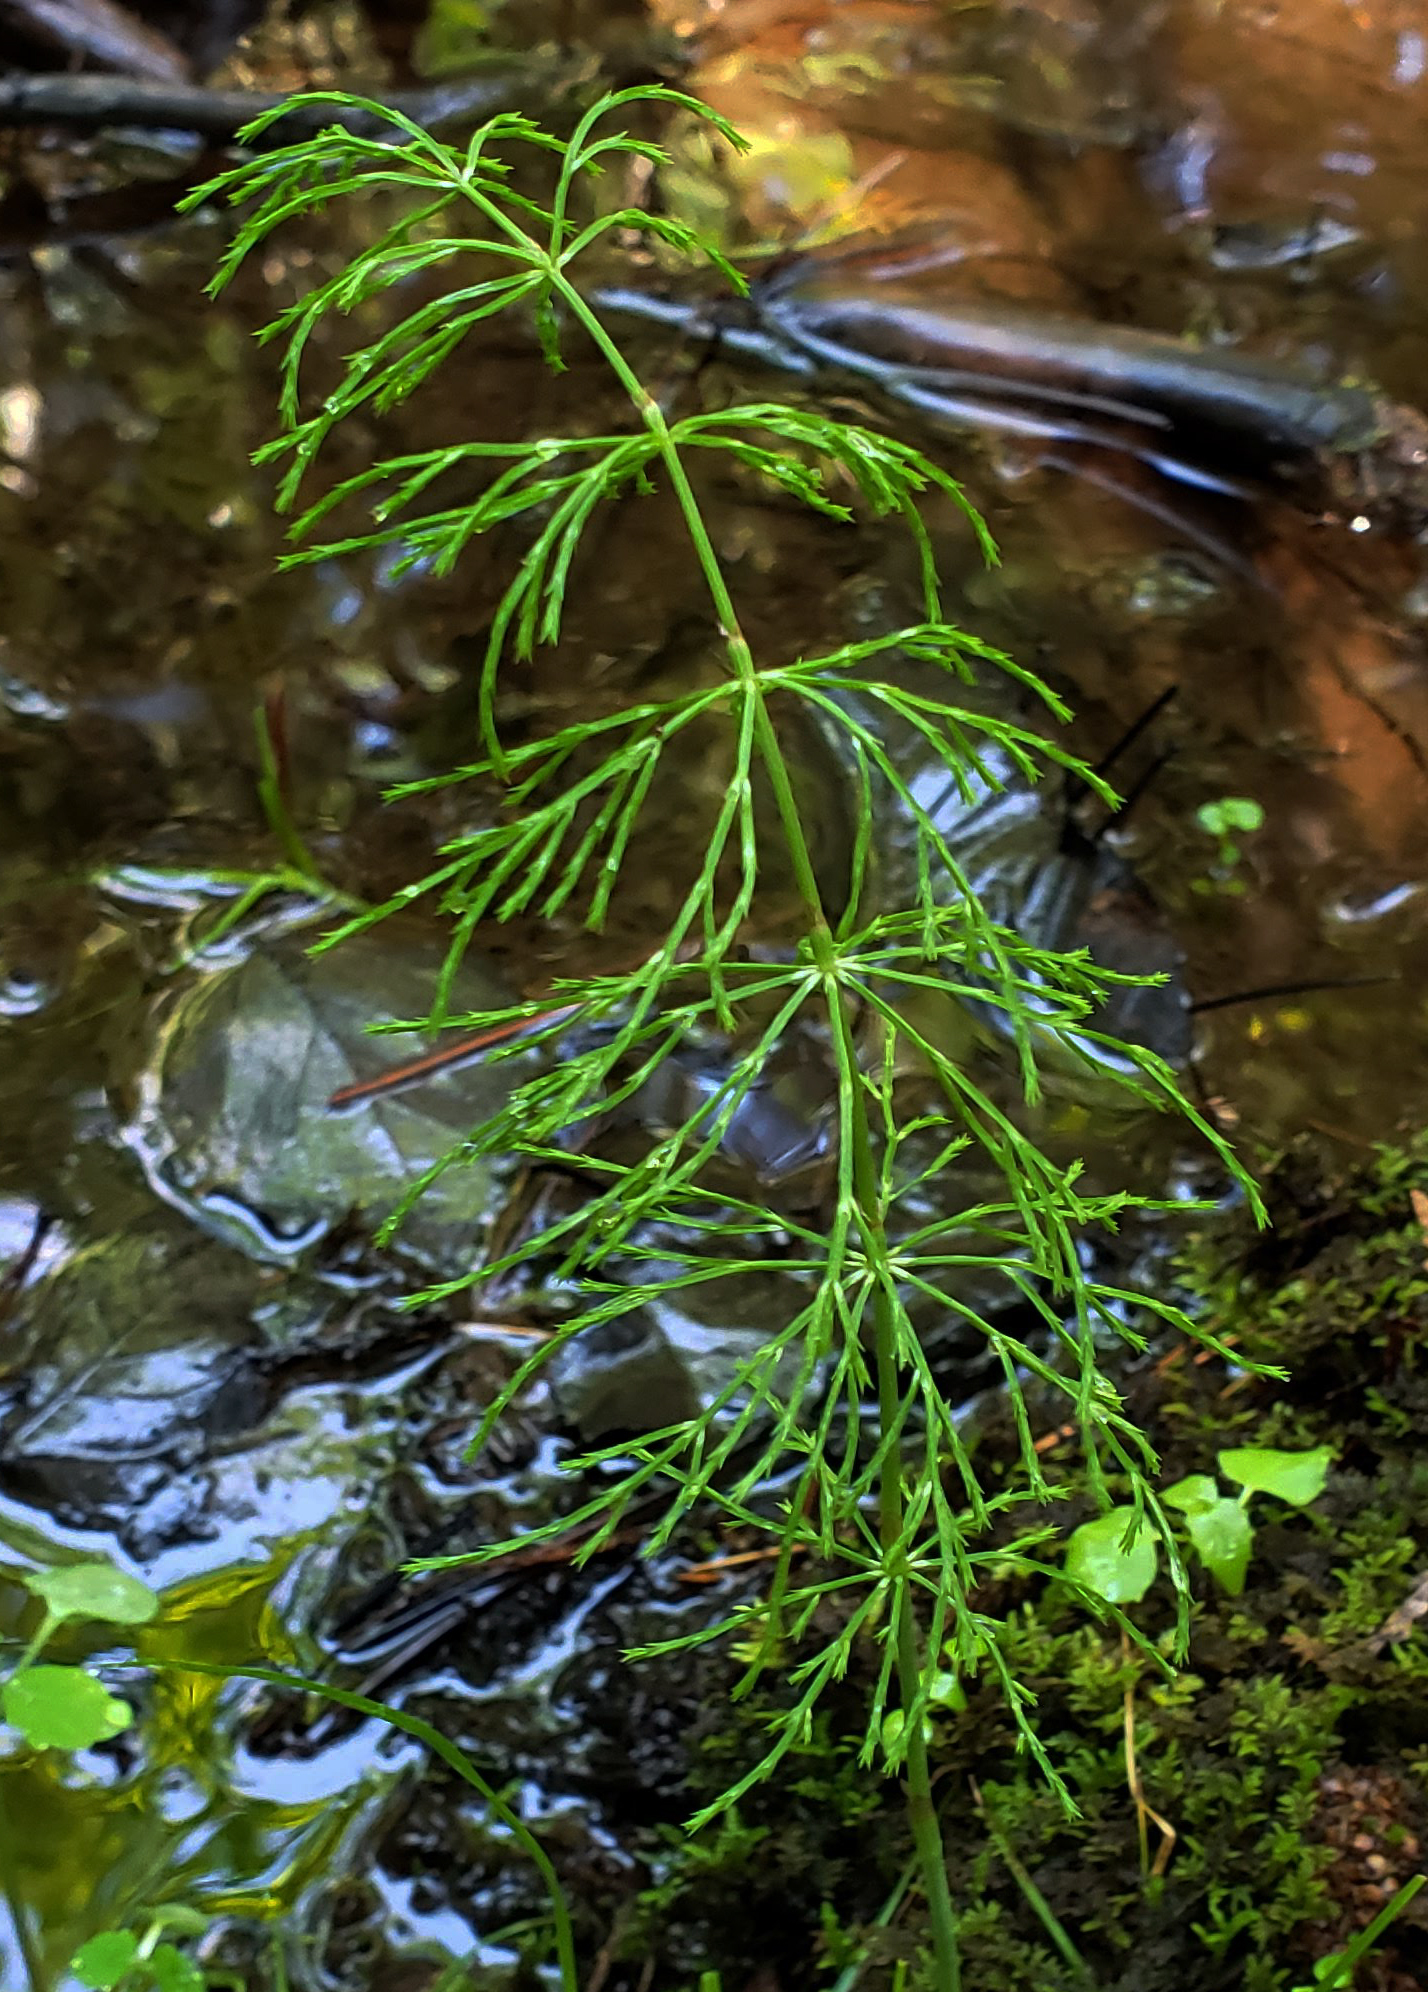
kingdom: Plantae
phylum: Tracheophyta
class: Polypodiopsida
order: Equisetales
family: Equisetaceae
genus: Equisetum
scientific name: Equisetum sylvaticum
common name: Wood horsetail
